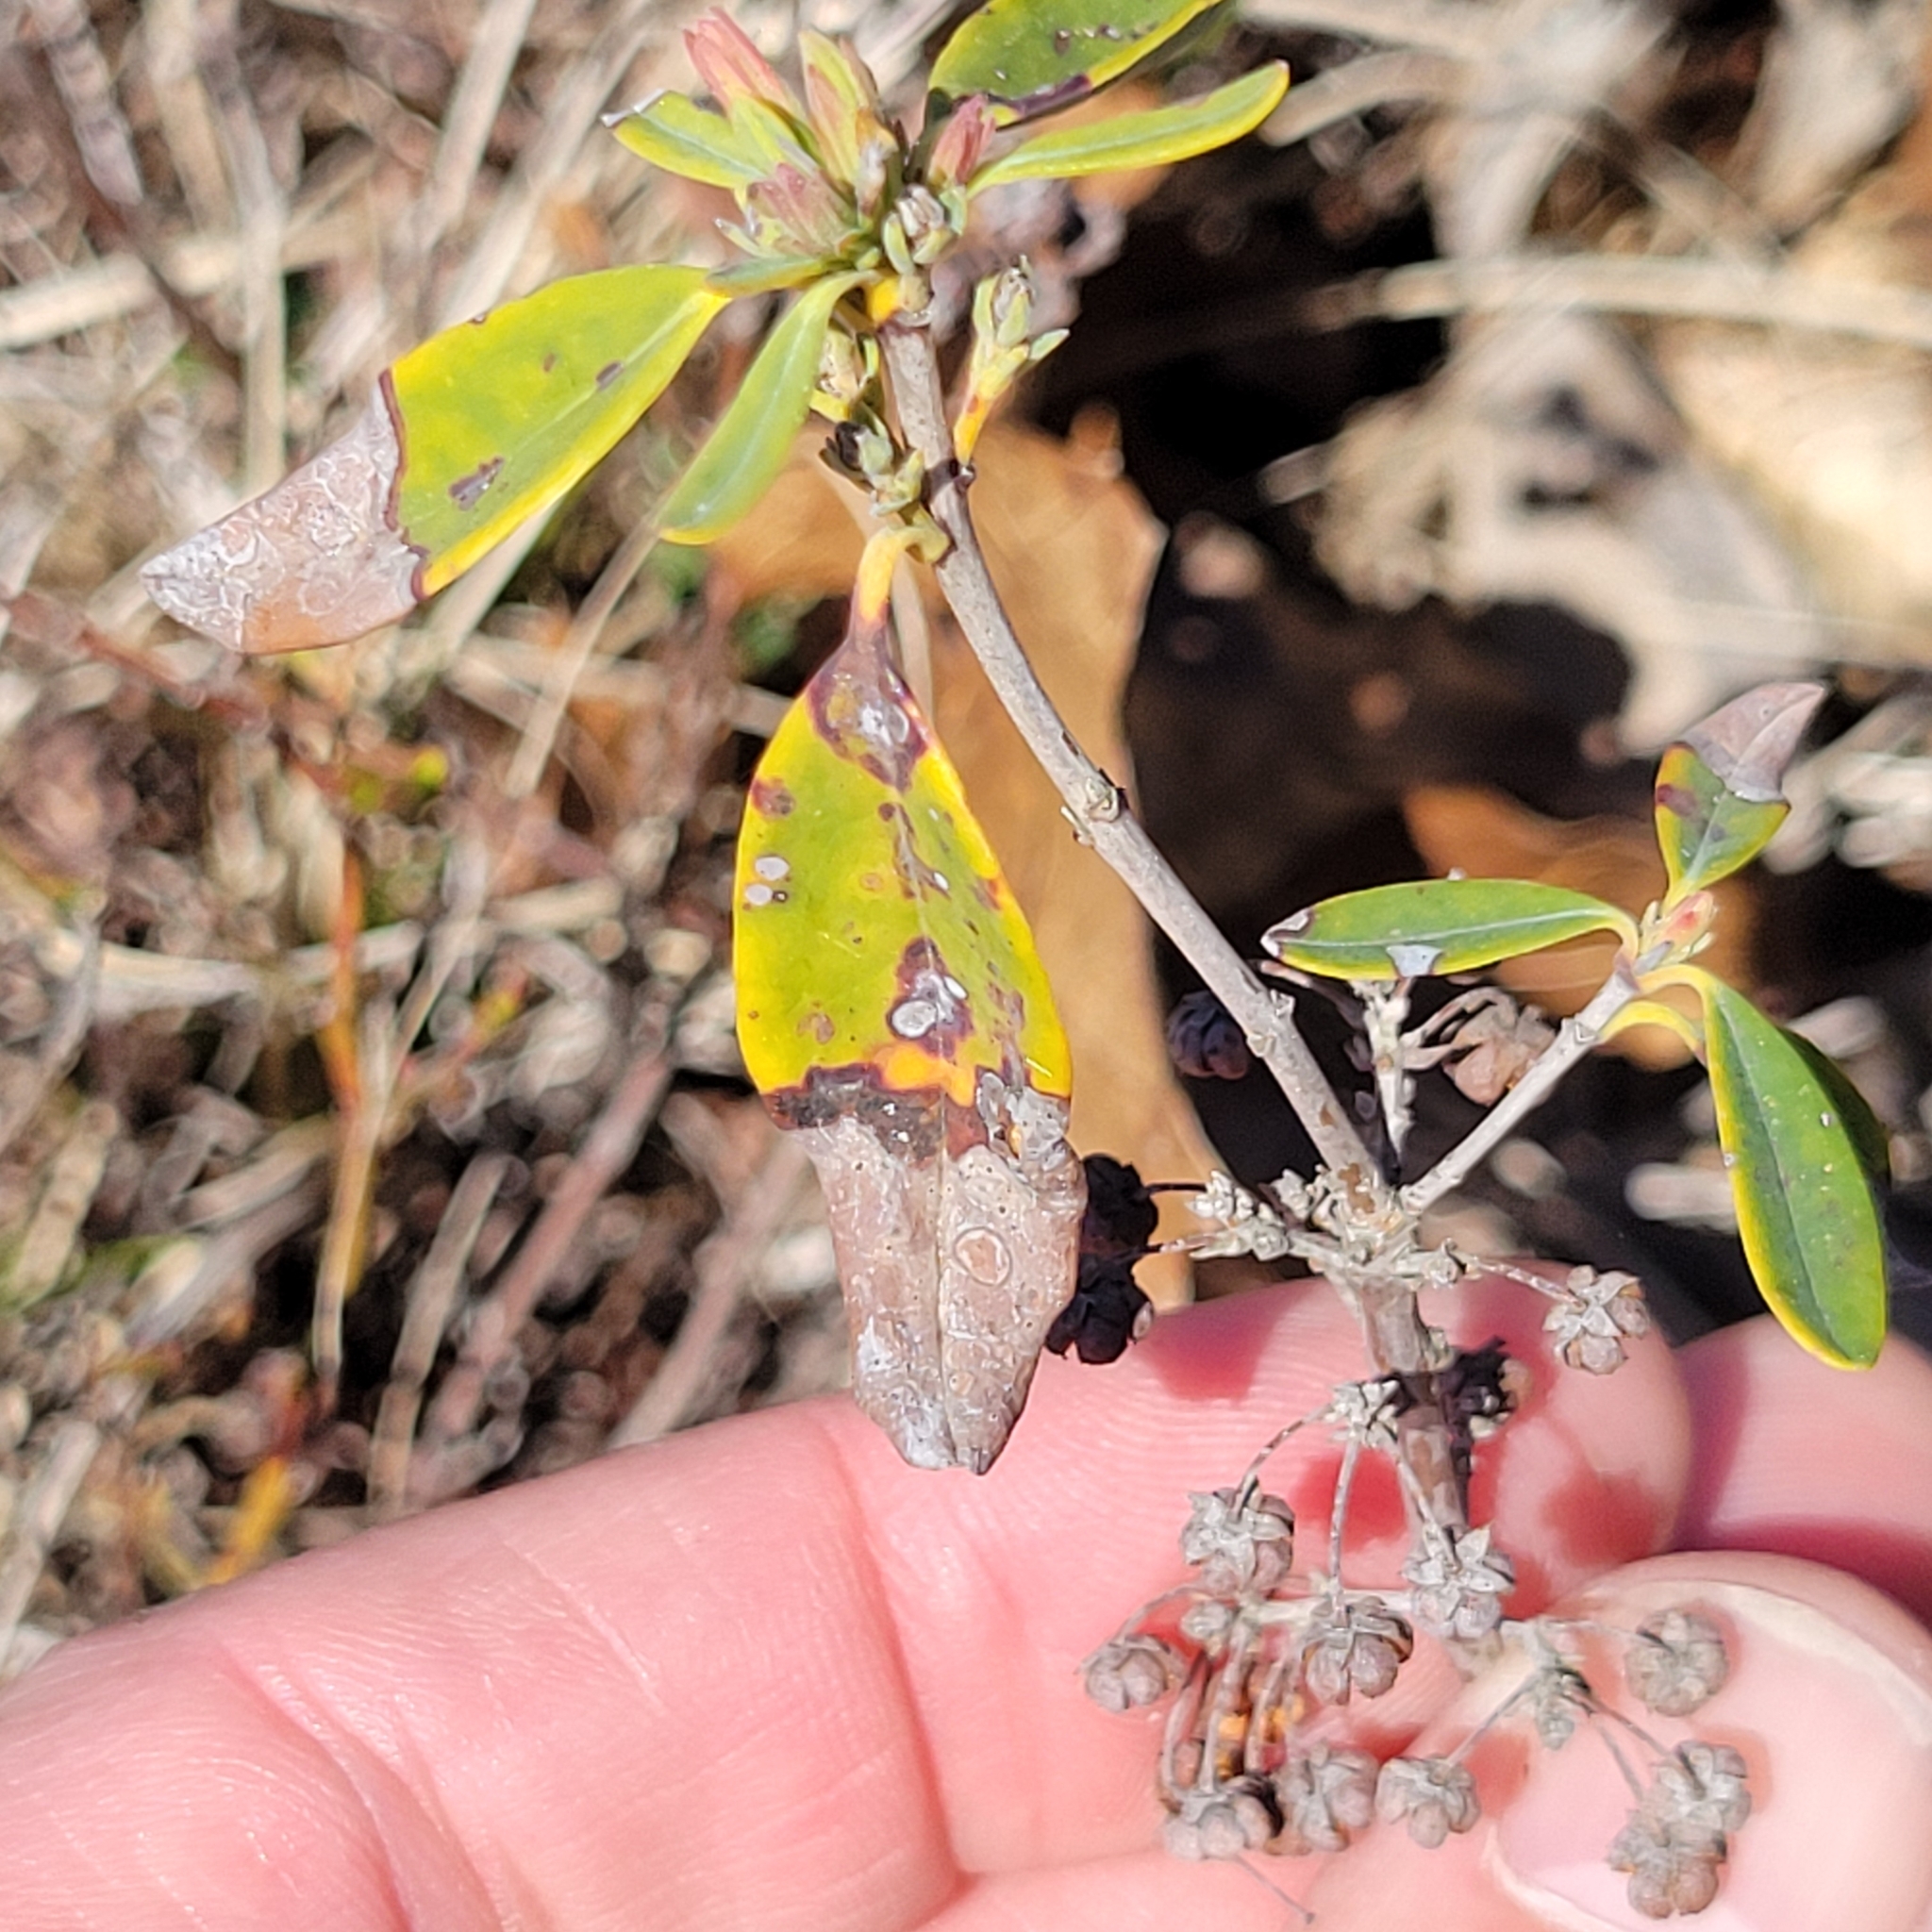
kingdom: Plantae
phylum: Tracheophyta
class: Magnoliopsida
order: Ericales
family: Ericaceae
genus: Kalmia
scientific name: Kalmia angustifolia
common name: Sheep-laurel
